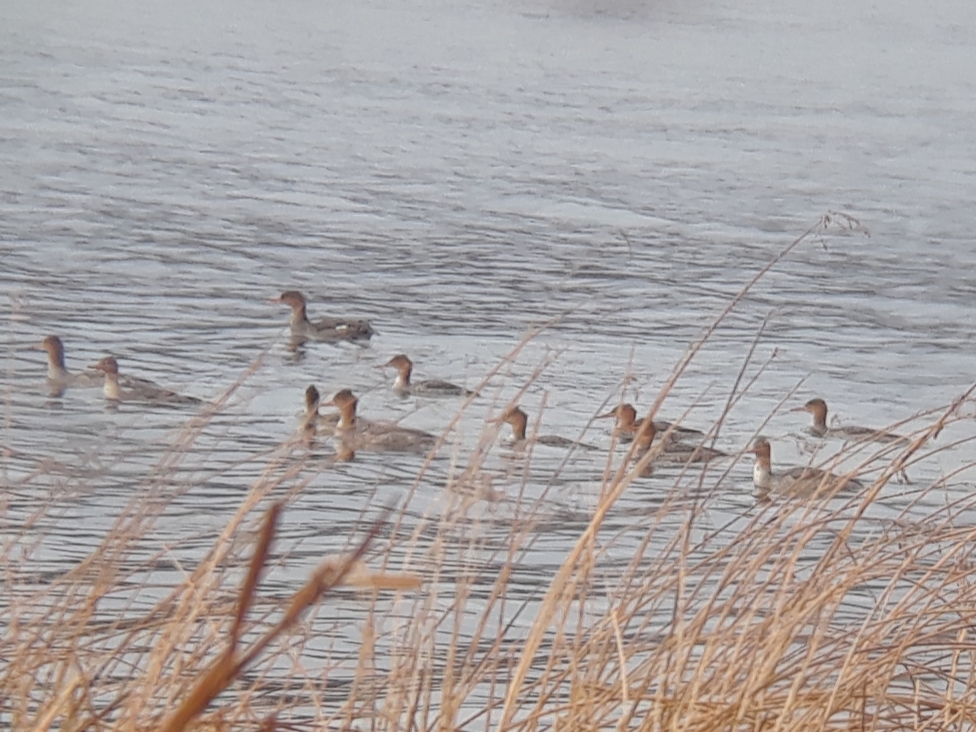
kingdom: Animalia
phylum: Chordata
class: Aves
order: Anseriformes
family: Anatidae
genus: Mergus
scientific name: Mergus serrator
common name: Red-breasted merganser
